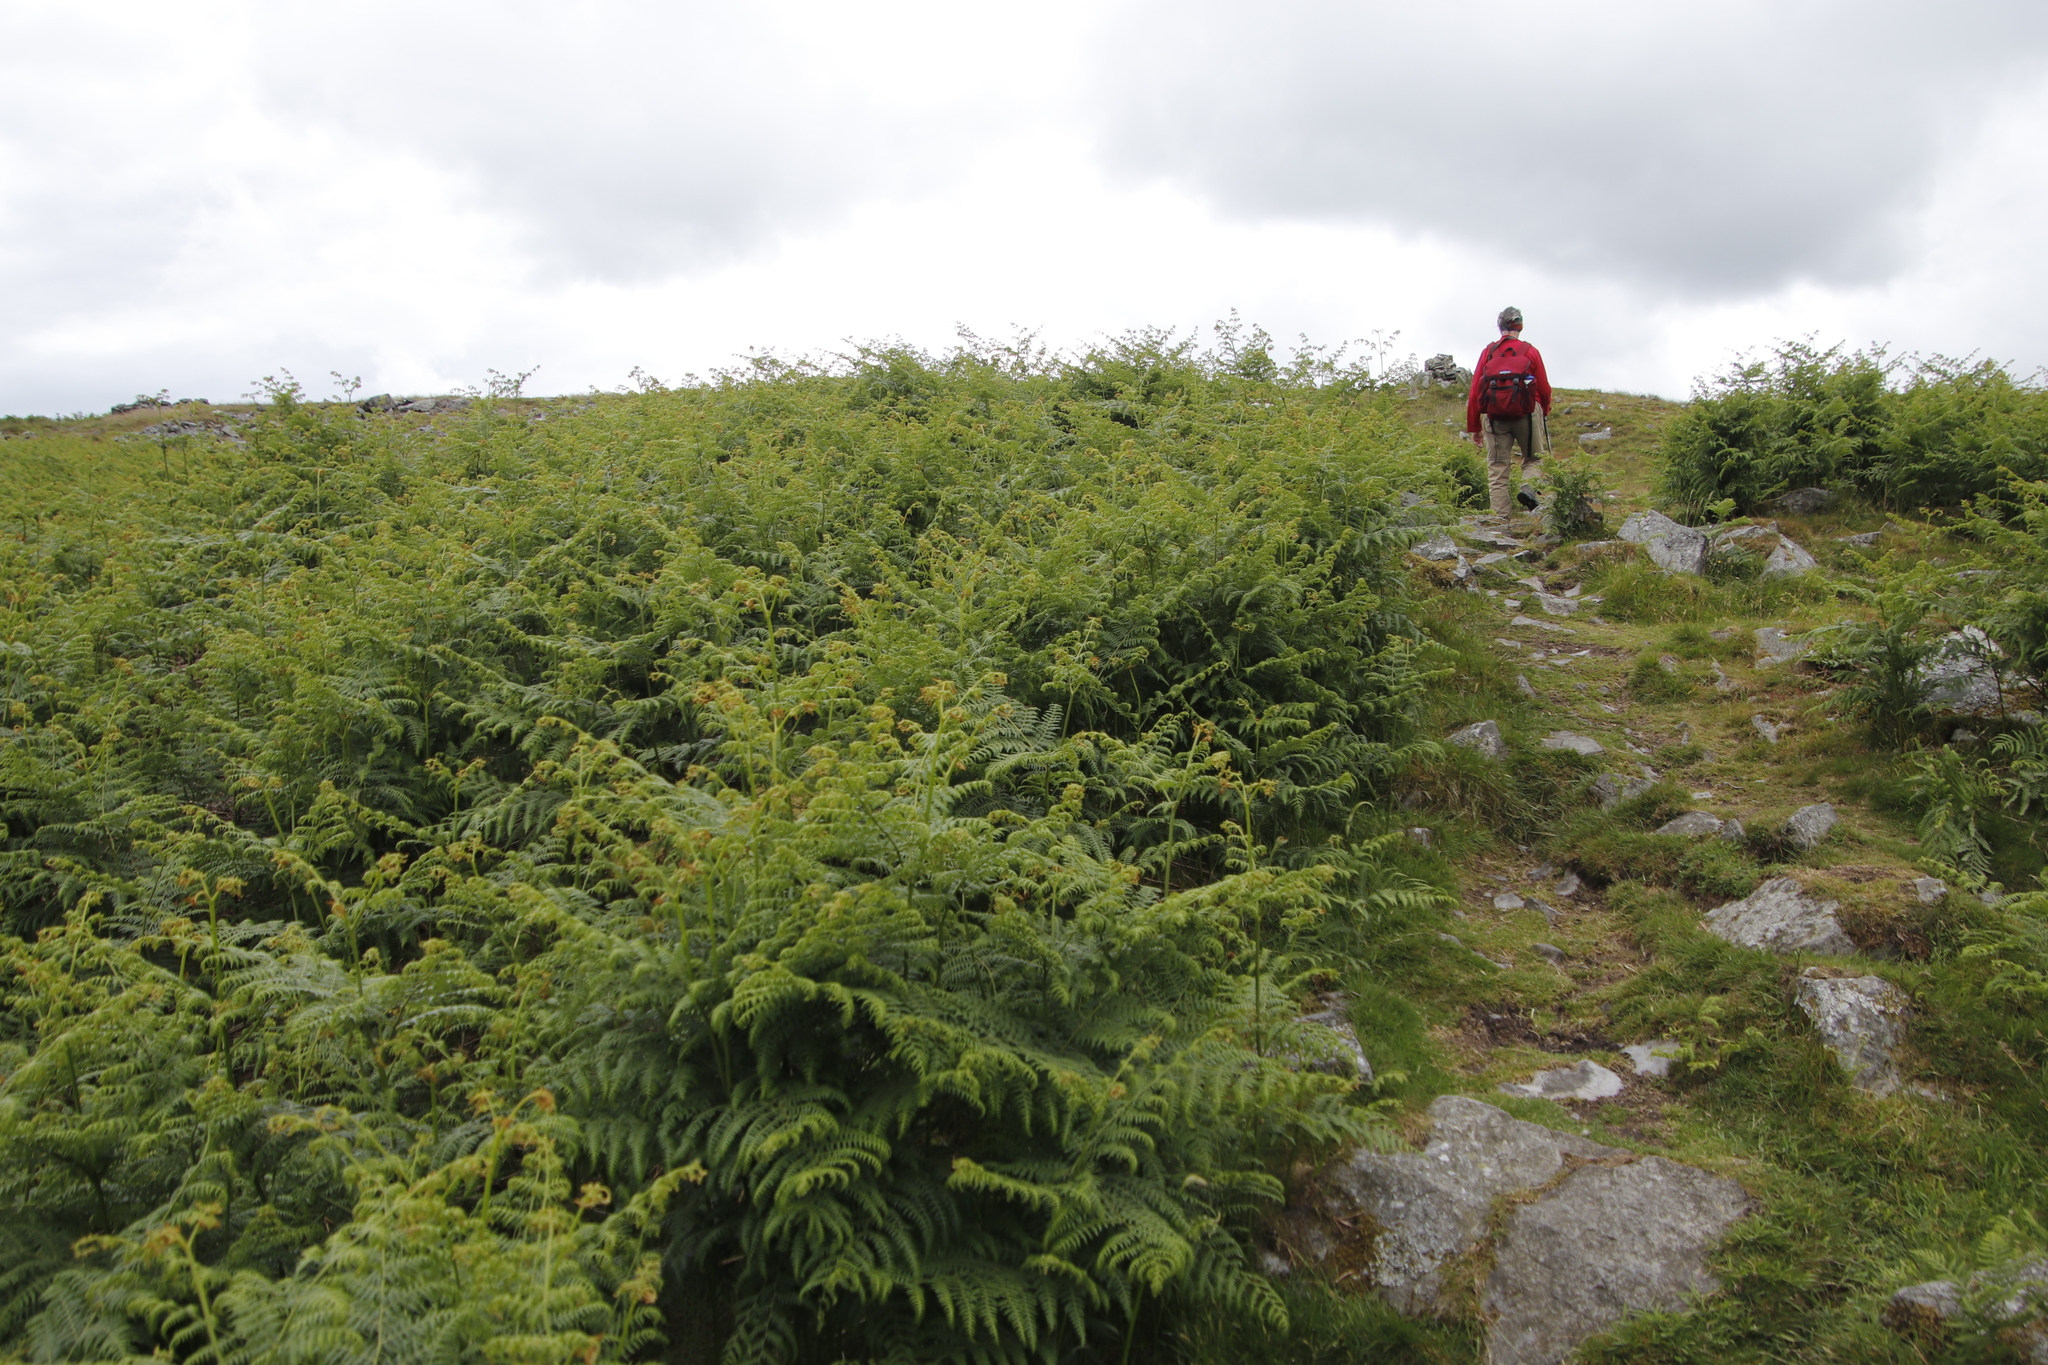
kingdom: Plantae
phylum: Tracheophyta
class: Polypodiopsida
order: Polypodiales
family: Dennstaedtiaceae
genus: Pteridium
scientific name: Pteridium aquilinum
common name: Bracken
